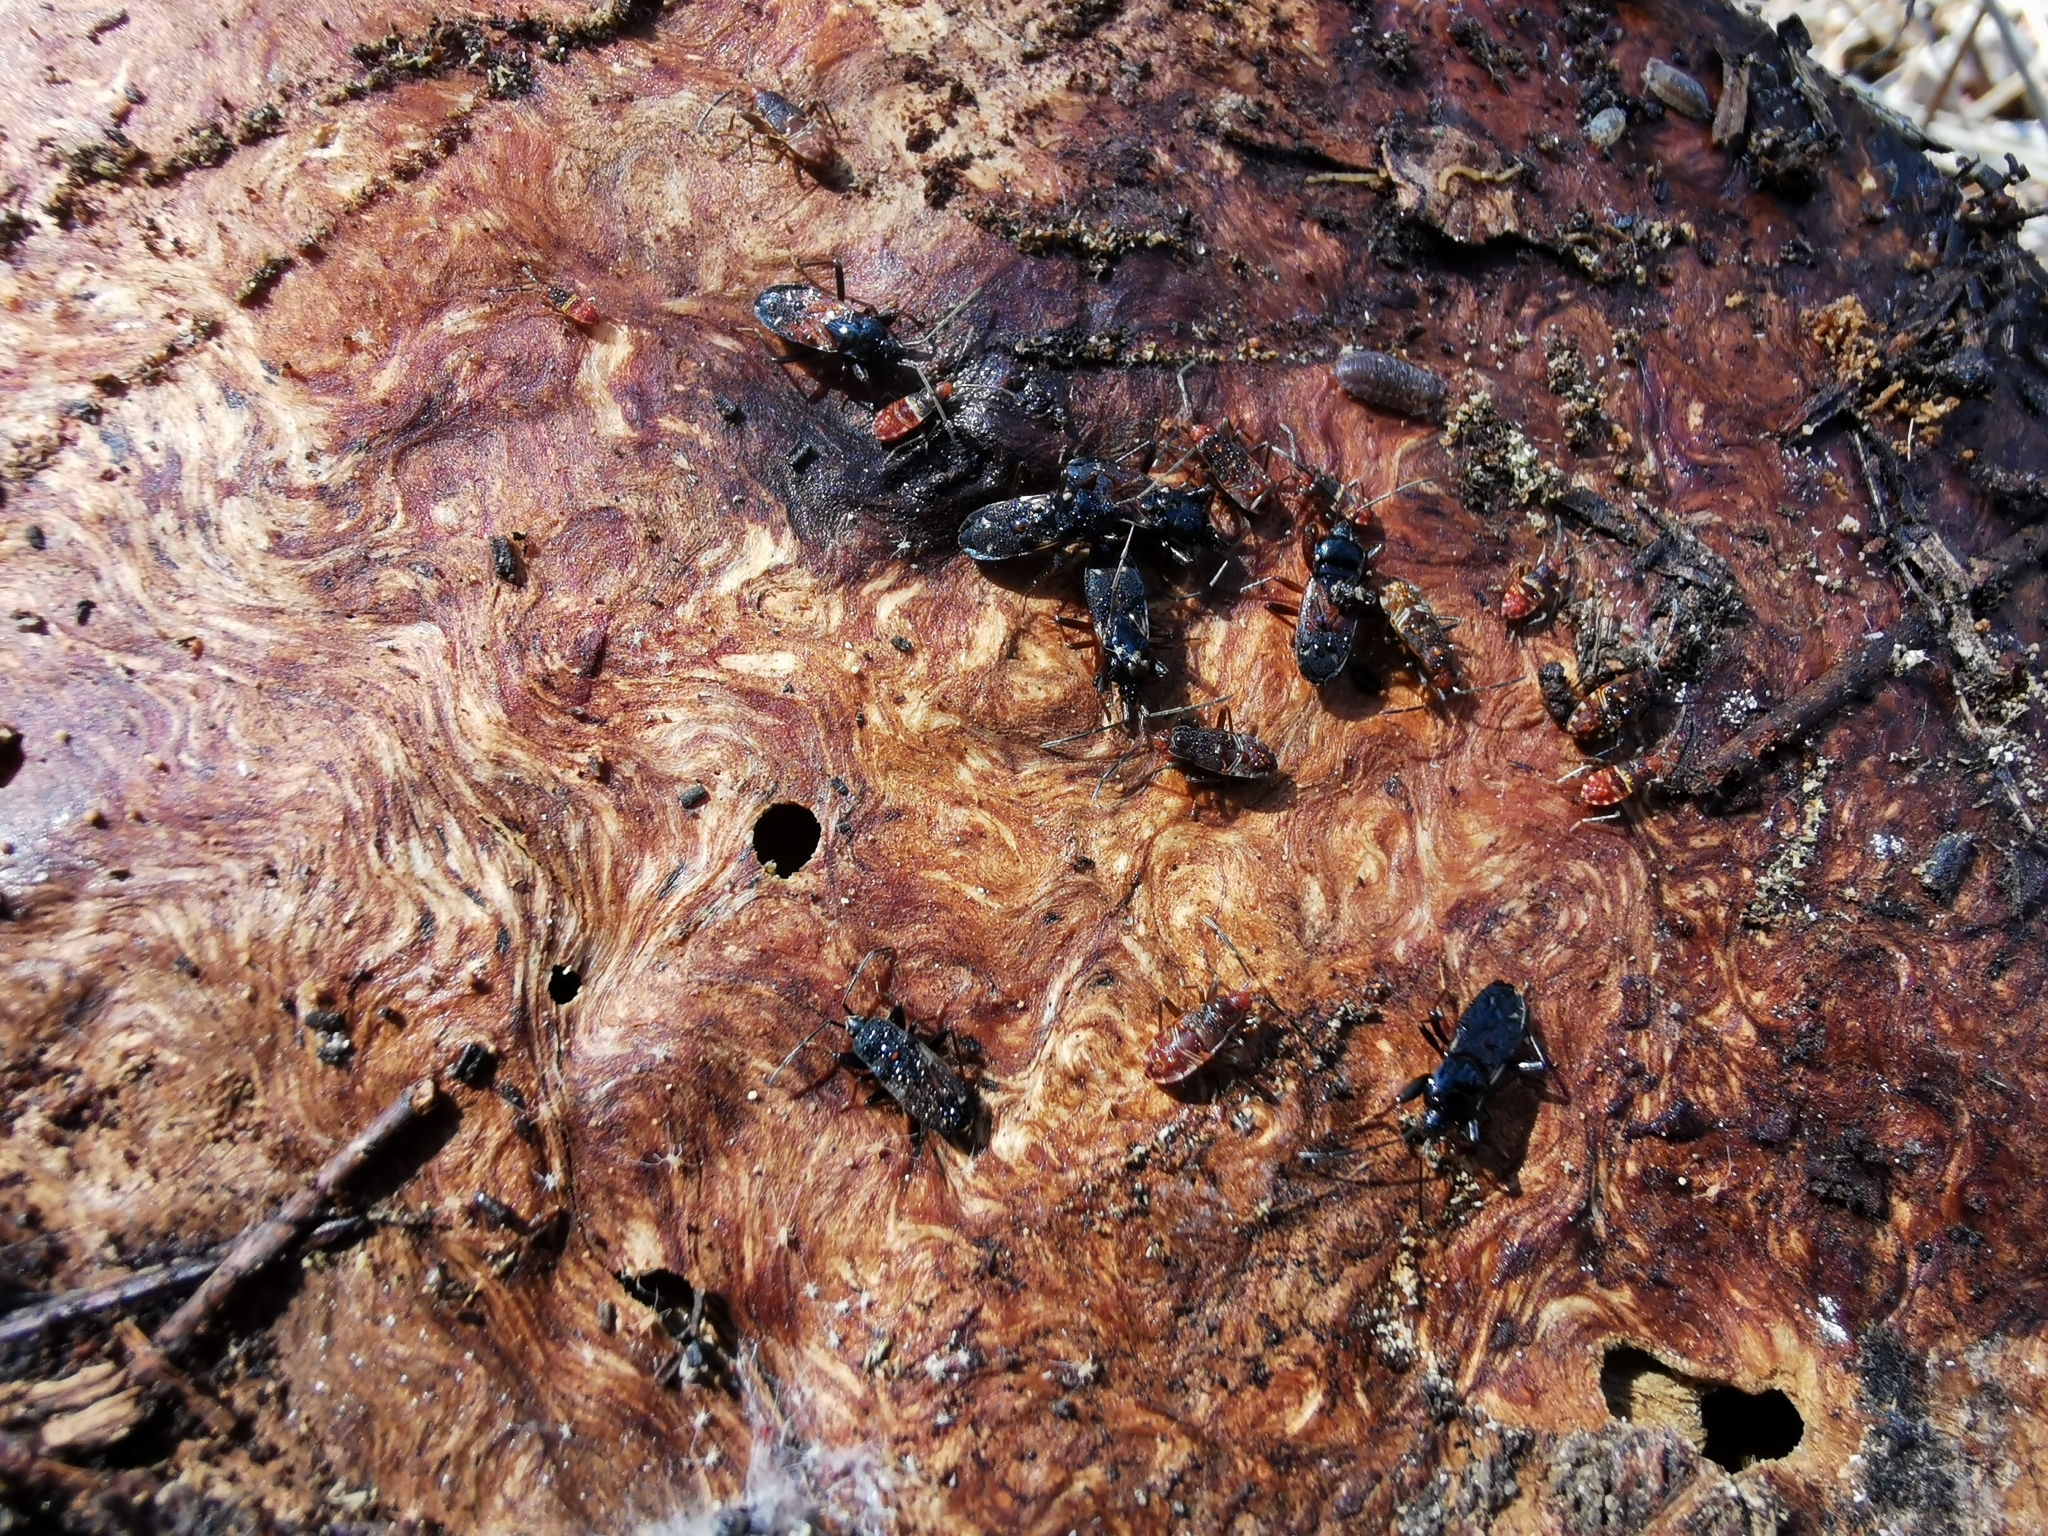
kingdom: Animalia
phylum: Arthropoda
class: Insecta
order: Hemiptera
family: Rhyparochromidae
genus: Eremocoris
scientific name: Eremocoris semicinctus
